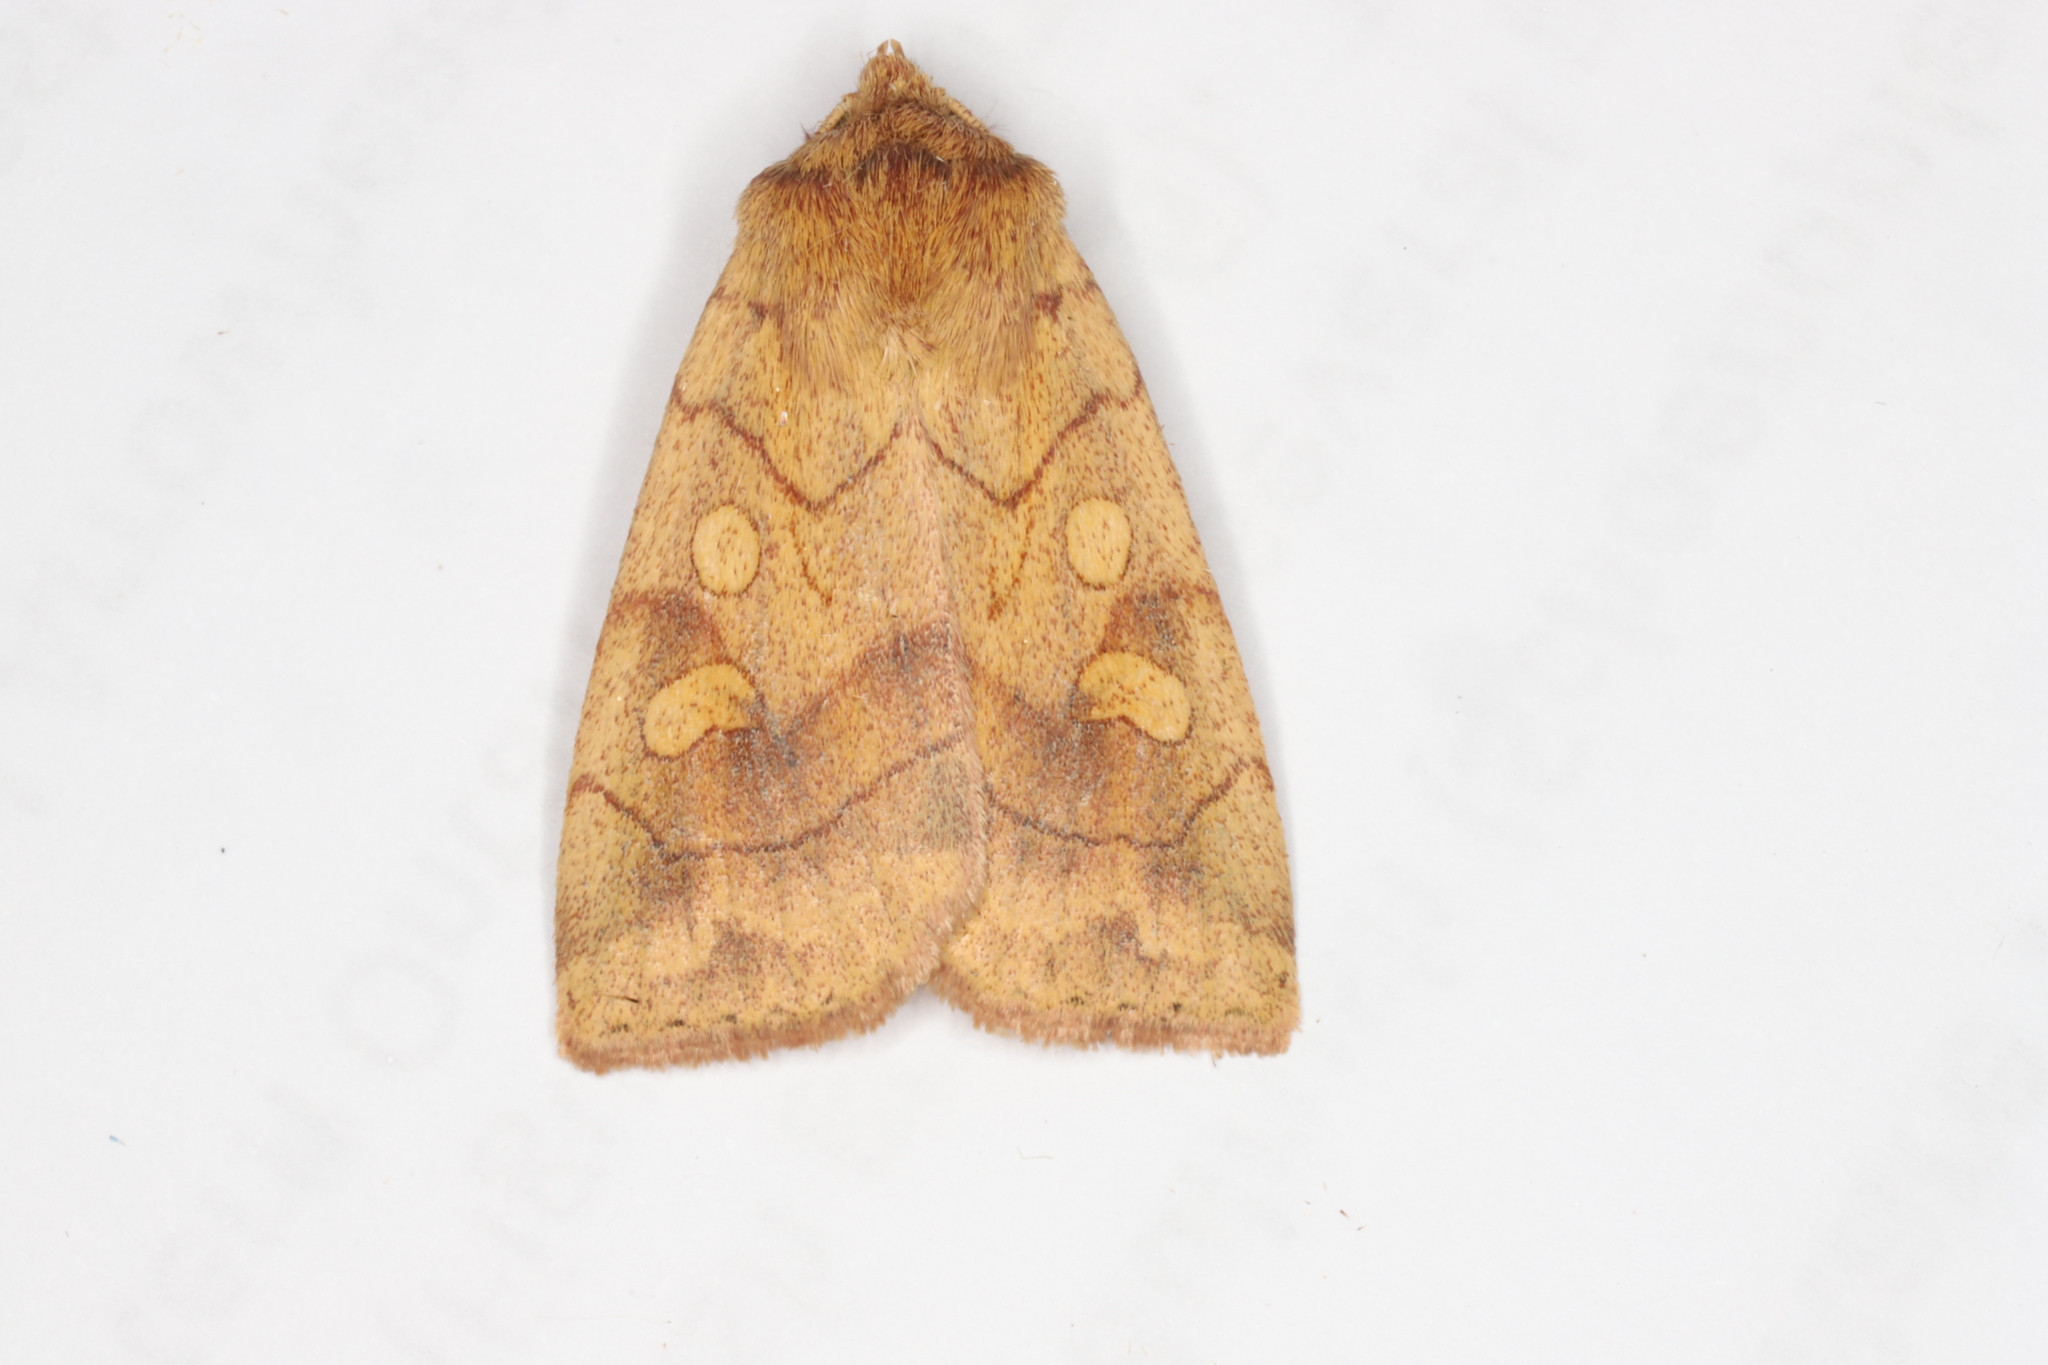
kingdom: Animalia
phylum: Arthropoda
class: Insecta
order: Lepidoptera
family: Noctuidae
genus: Enargia
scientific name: Enargia decolor
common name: Aspen twoleaf tier moth
